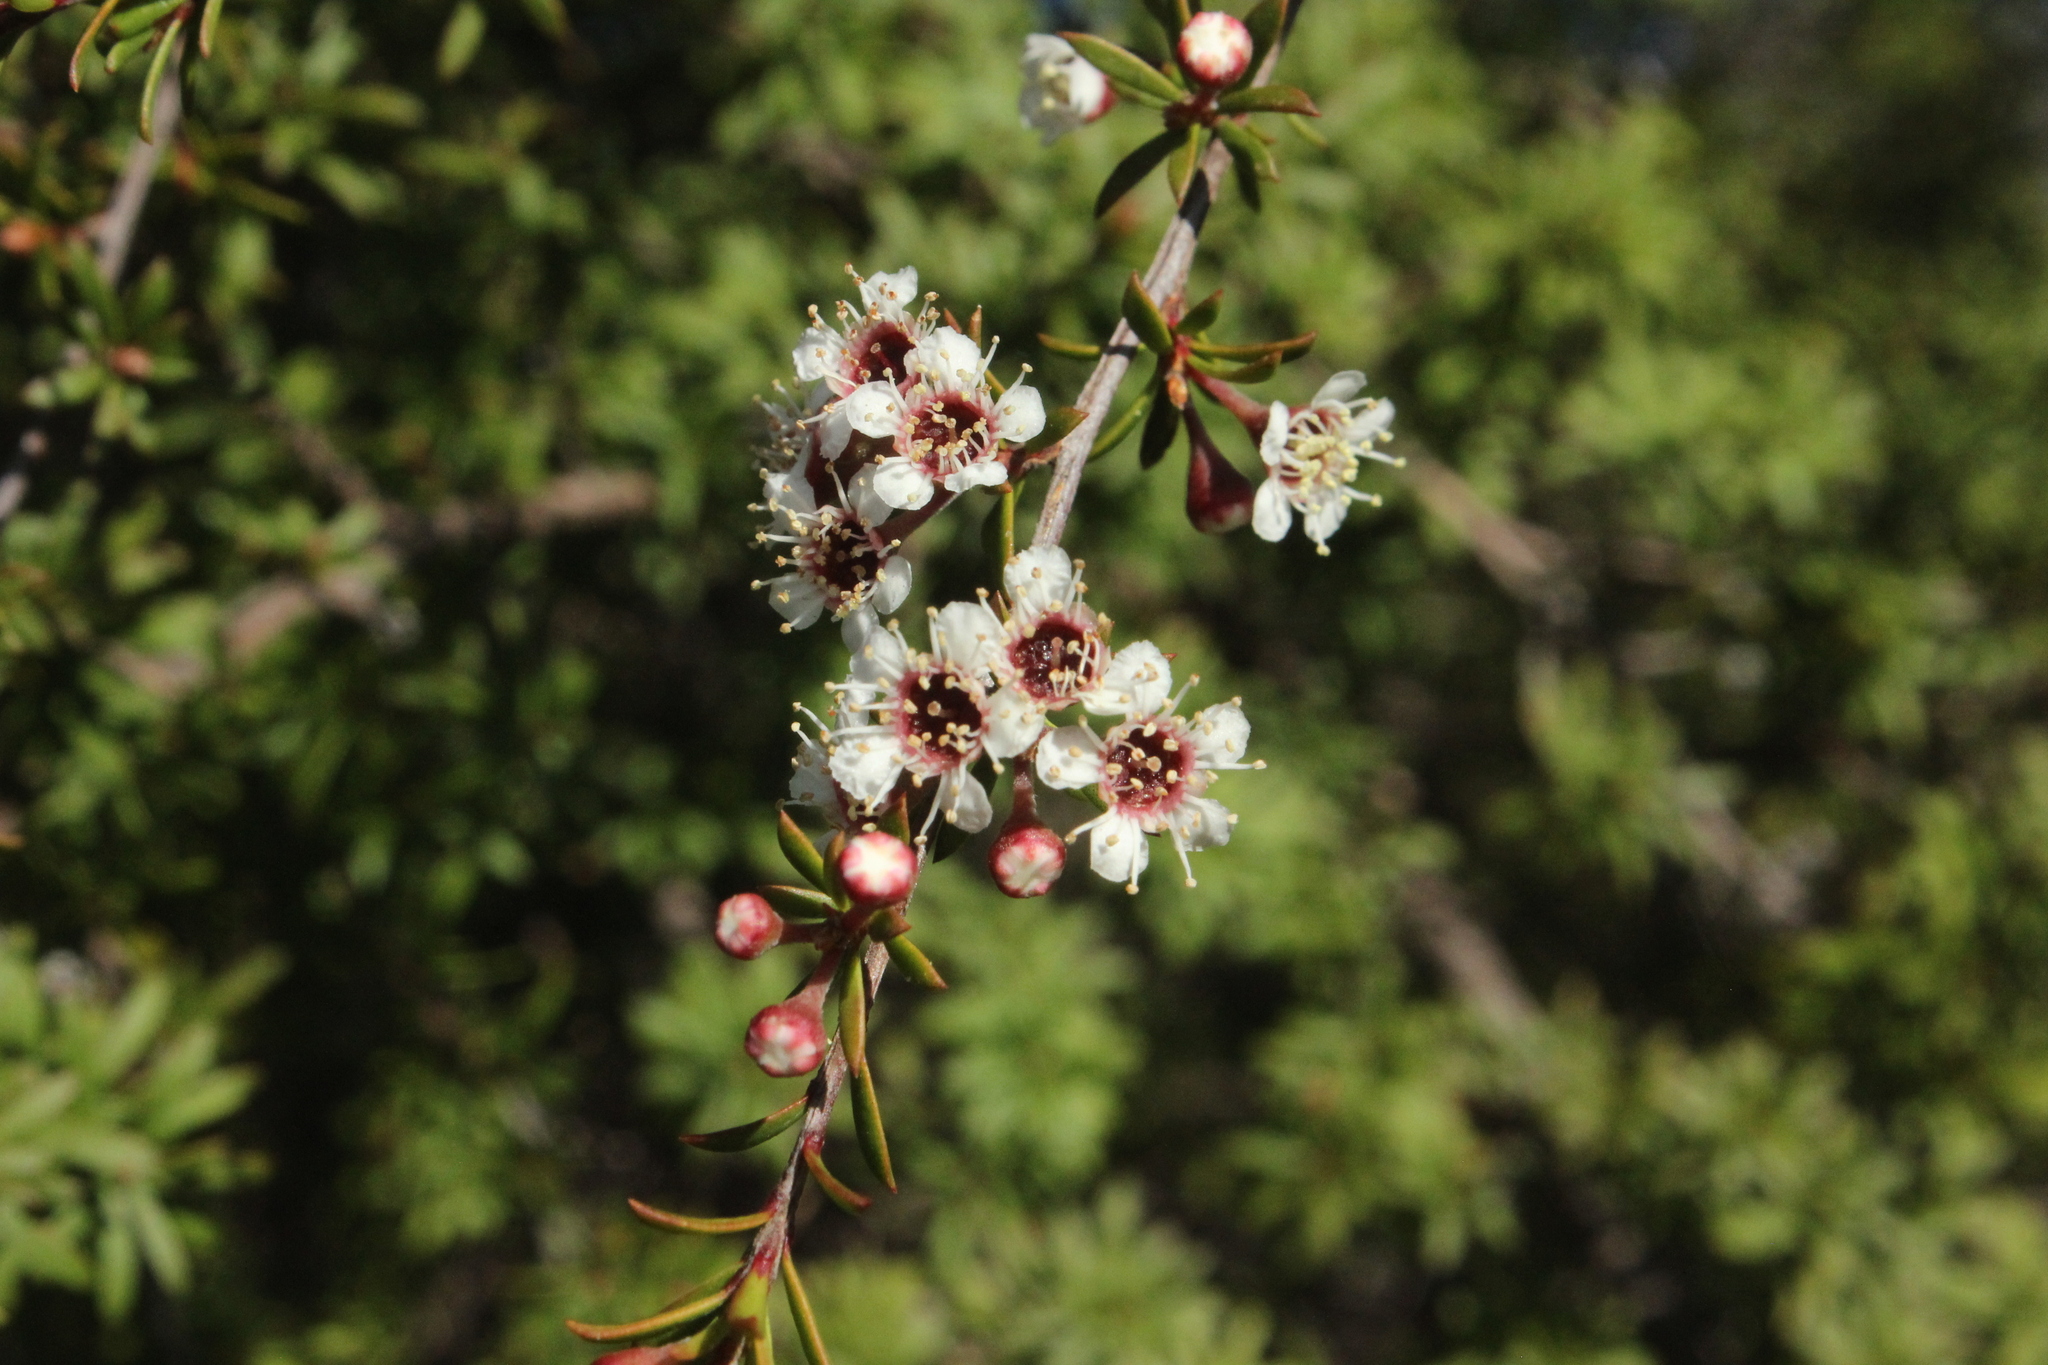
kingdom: Plantae
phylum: Tracheophyta
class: Magnoliopsida
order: Myrtales
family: Myrtaceae
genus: Kunzea
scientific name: Kunzea tenuicaulis
